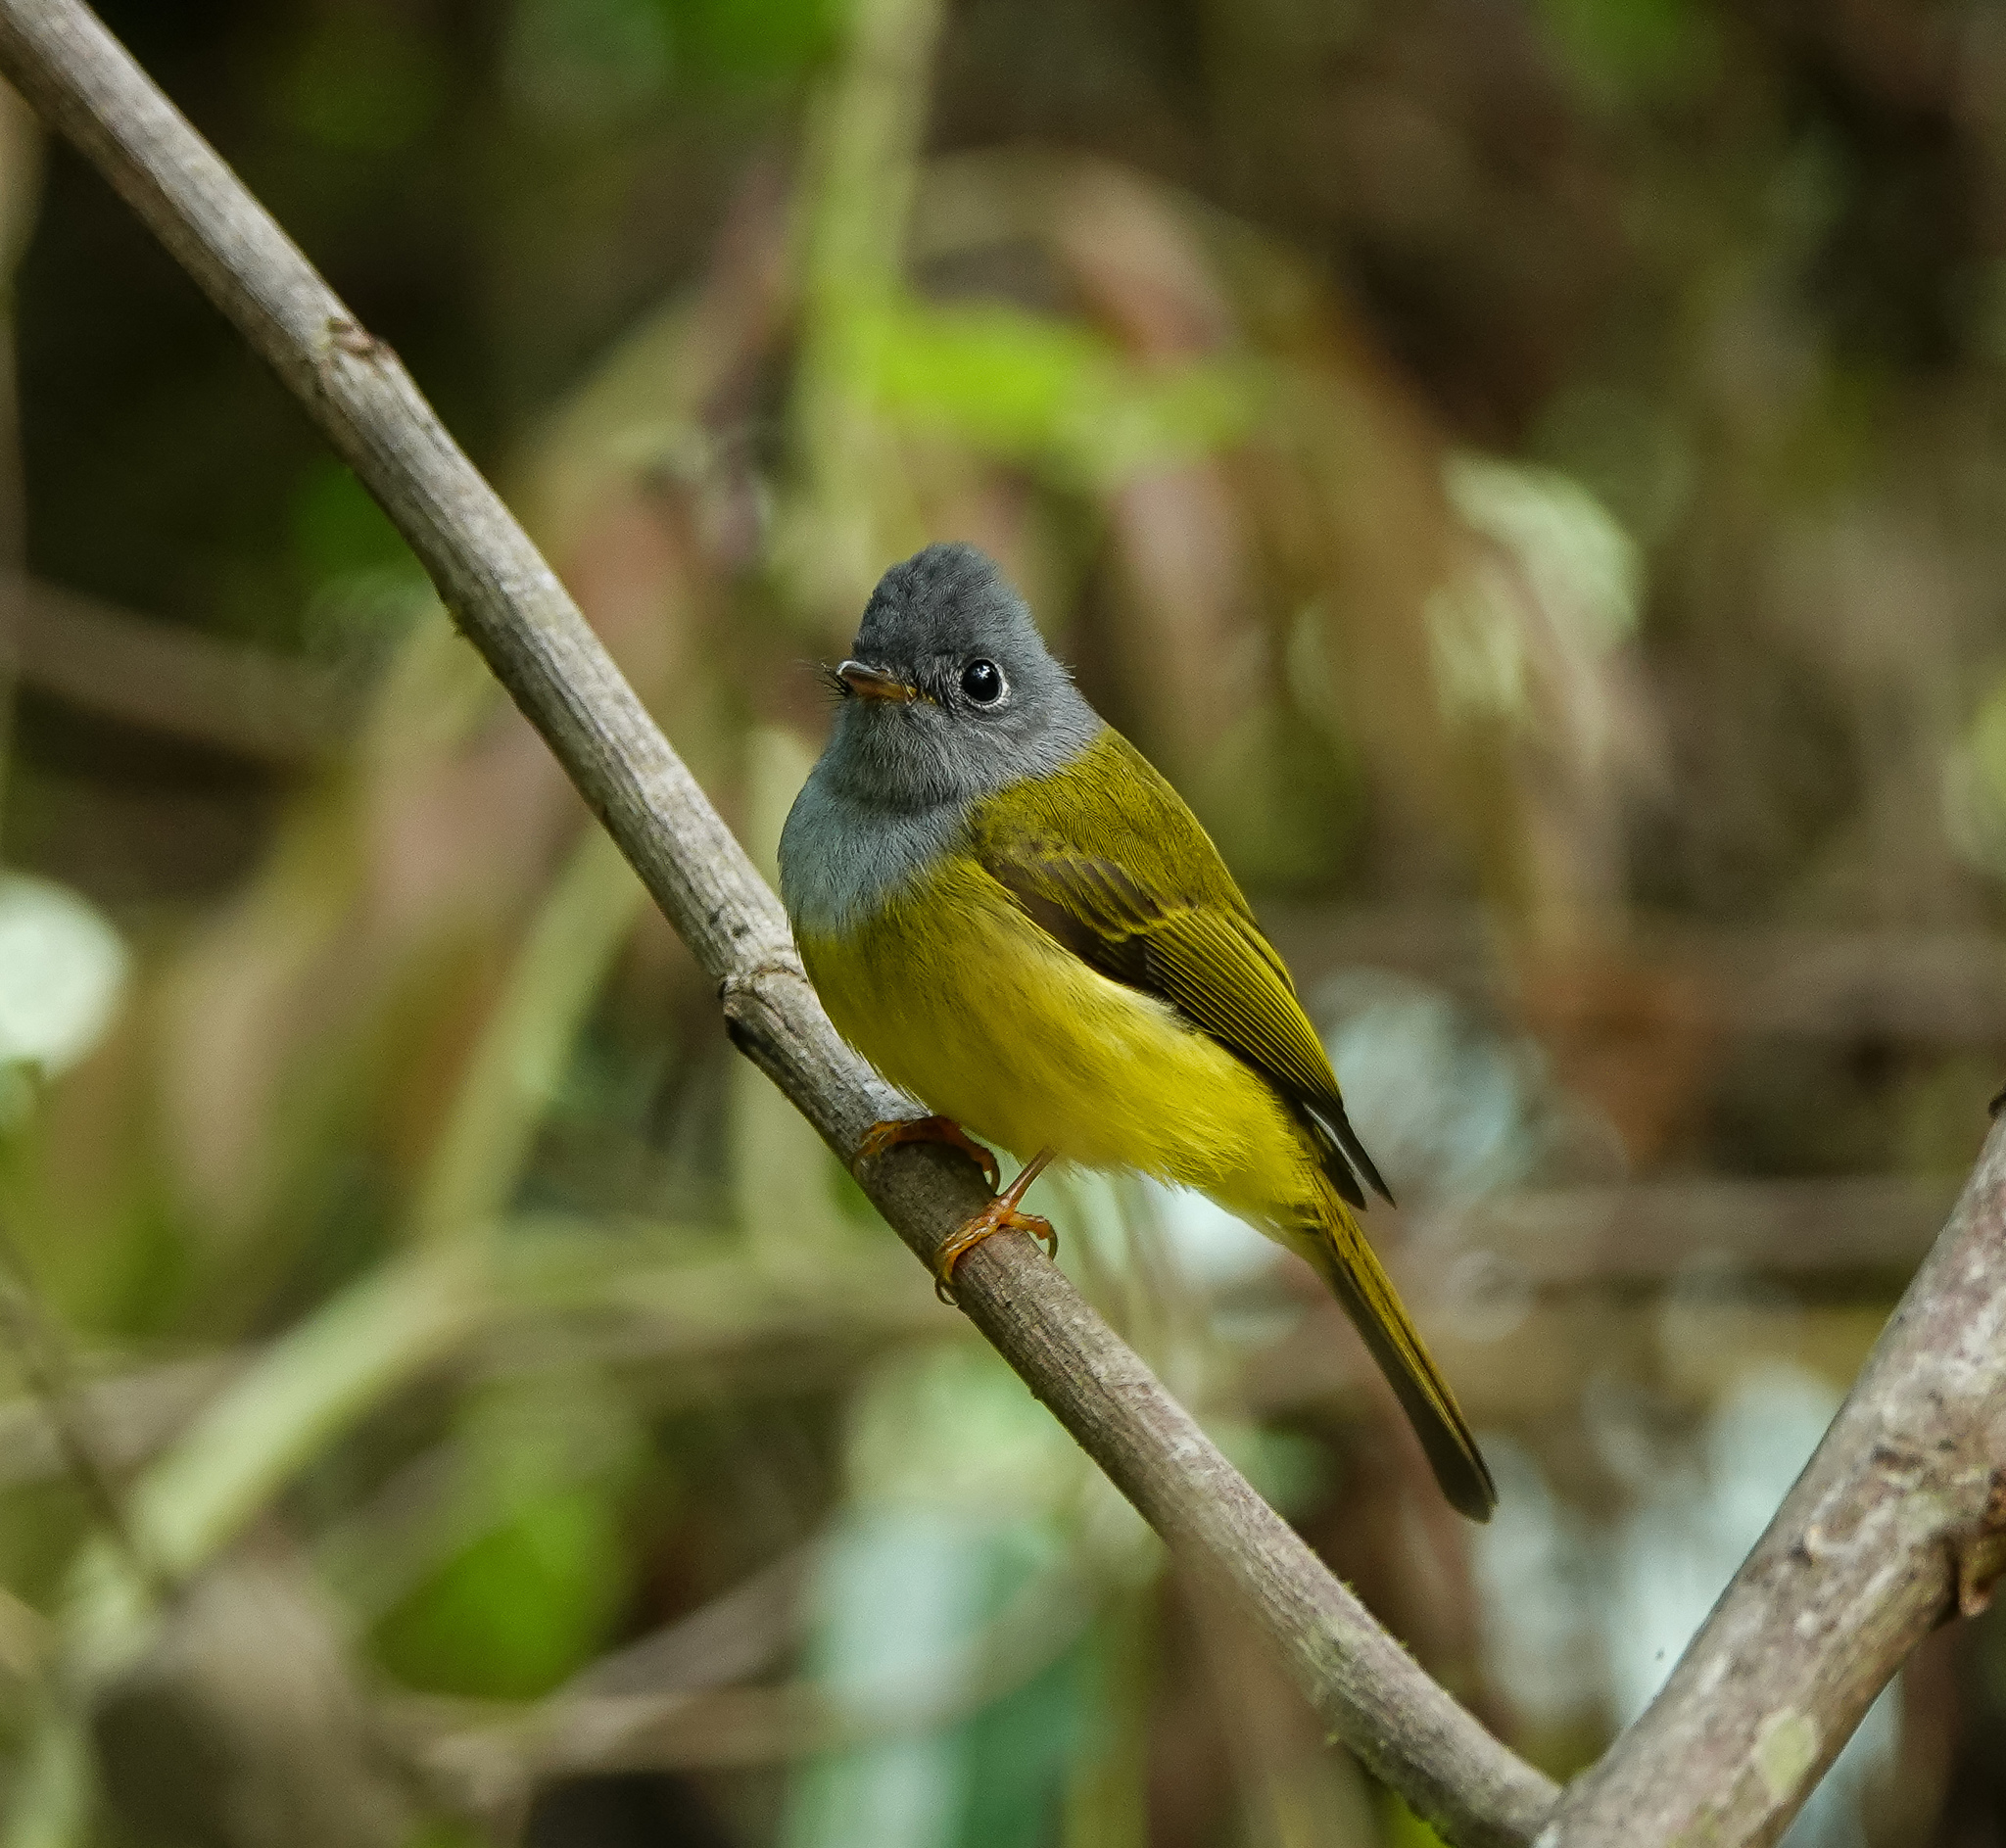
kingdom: Animalia
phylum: Chordata
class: Aves
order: Passeriformes
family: Stenostiridae
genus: Culicicapa
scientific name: Culicicapa ceylonensis
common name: Grey-headed canary-flycatcher
